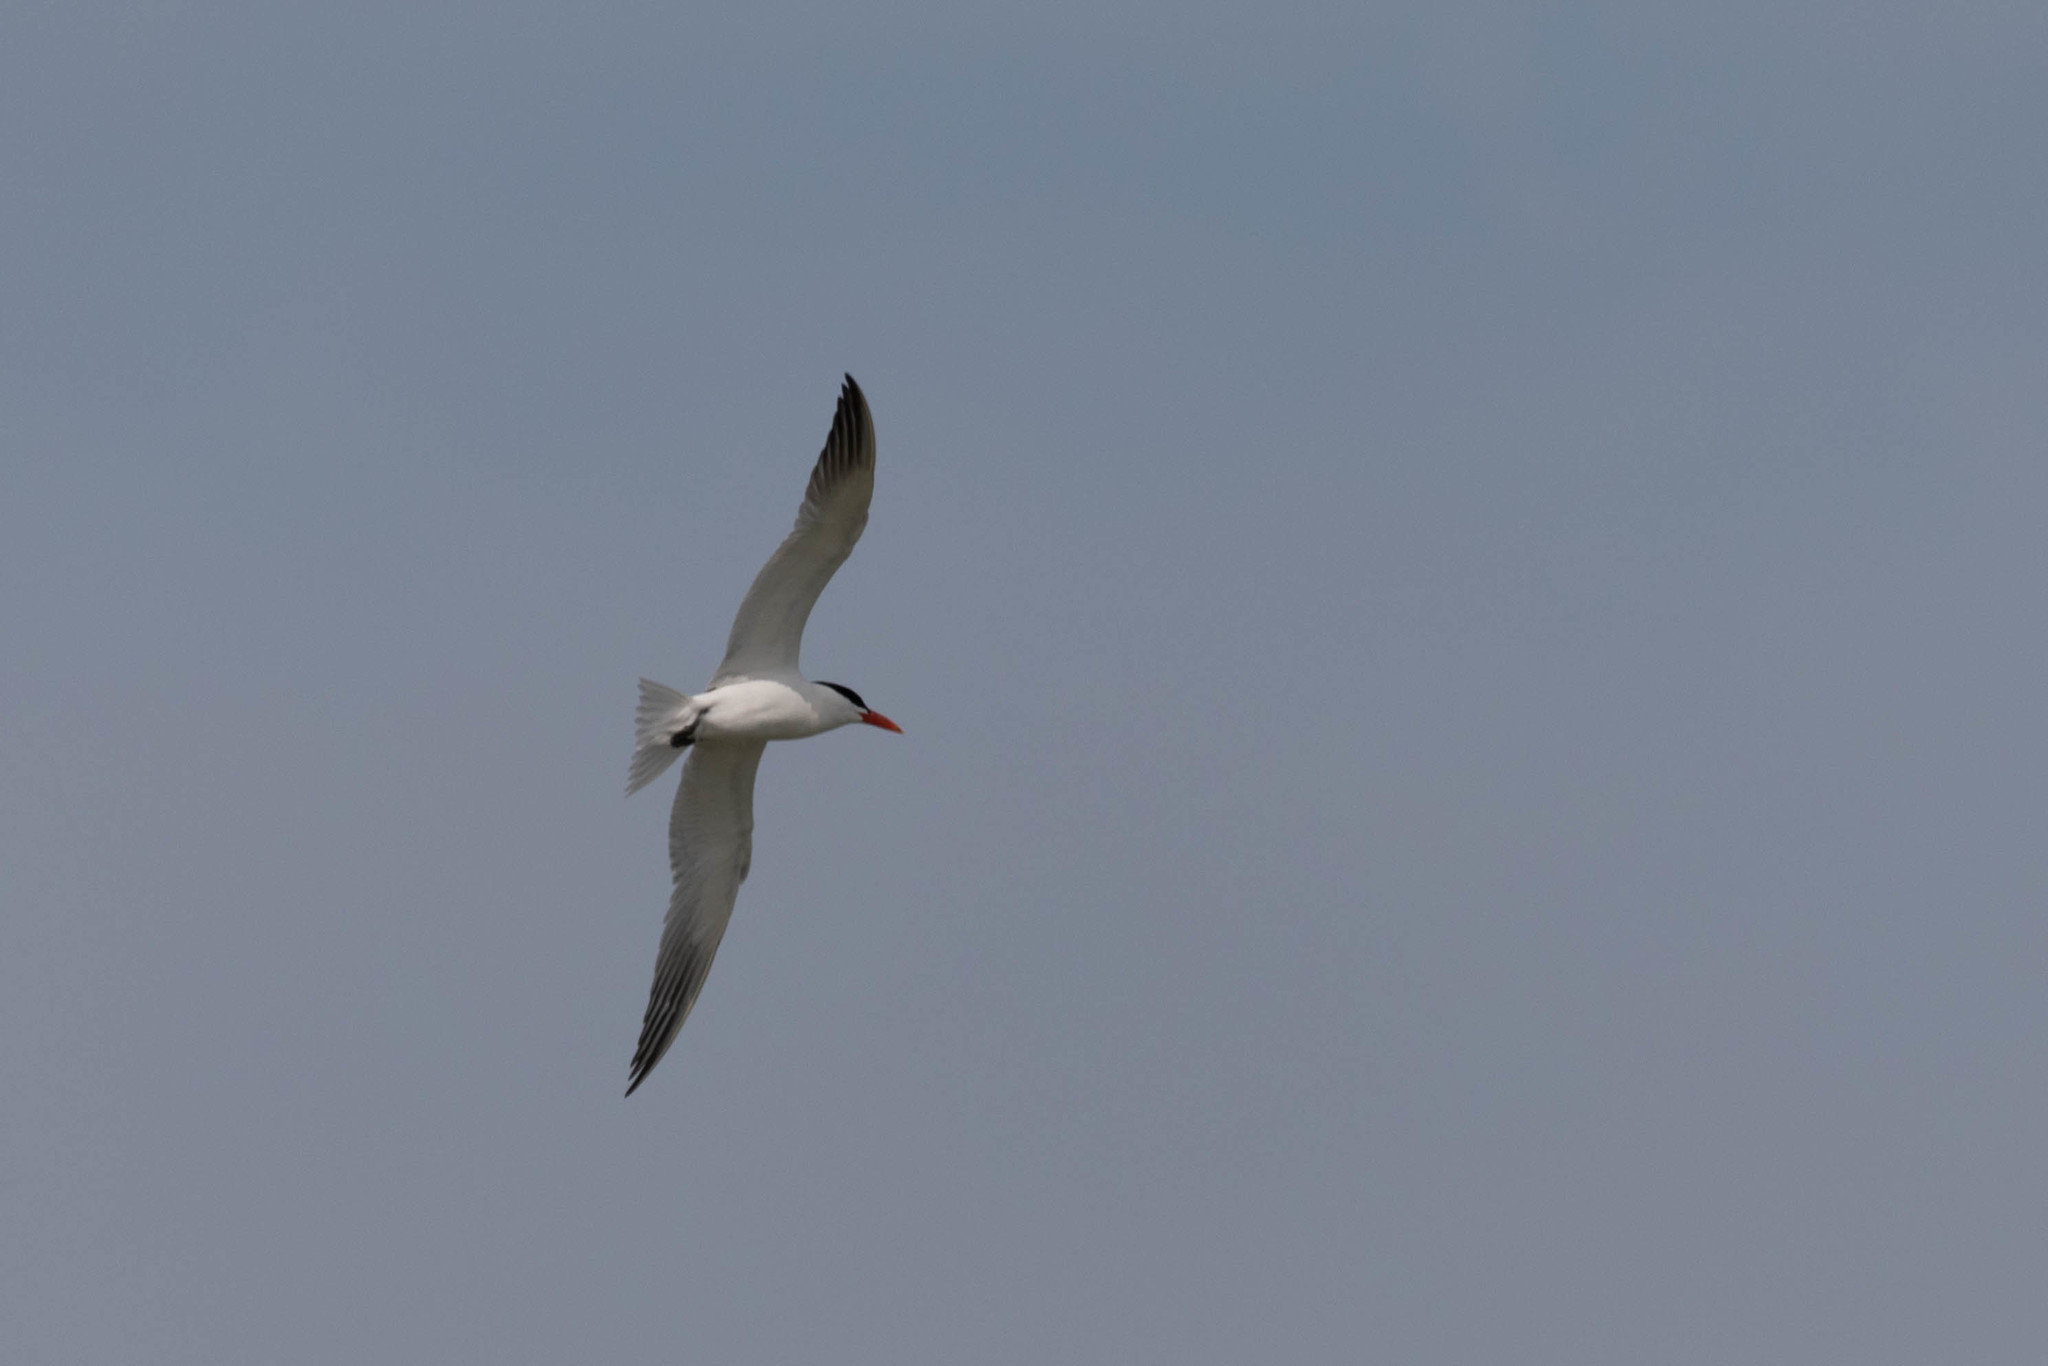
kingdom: Animalia
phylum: Chordata
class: Aves
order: Charadriiformes
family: Laridae
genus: Hydroprogne
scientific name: Hydroprogne caspia
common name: Caspian tern
